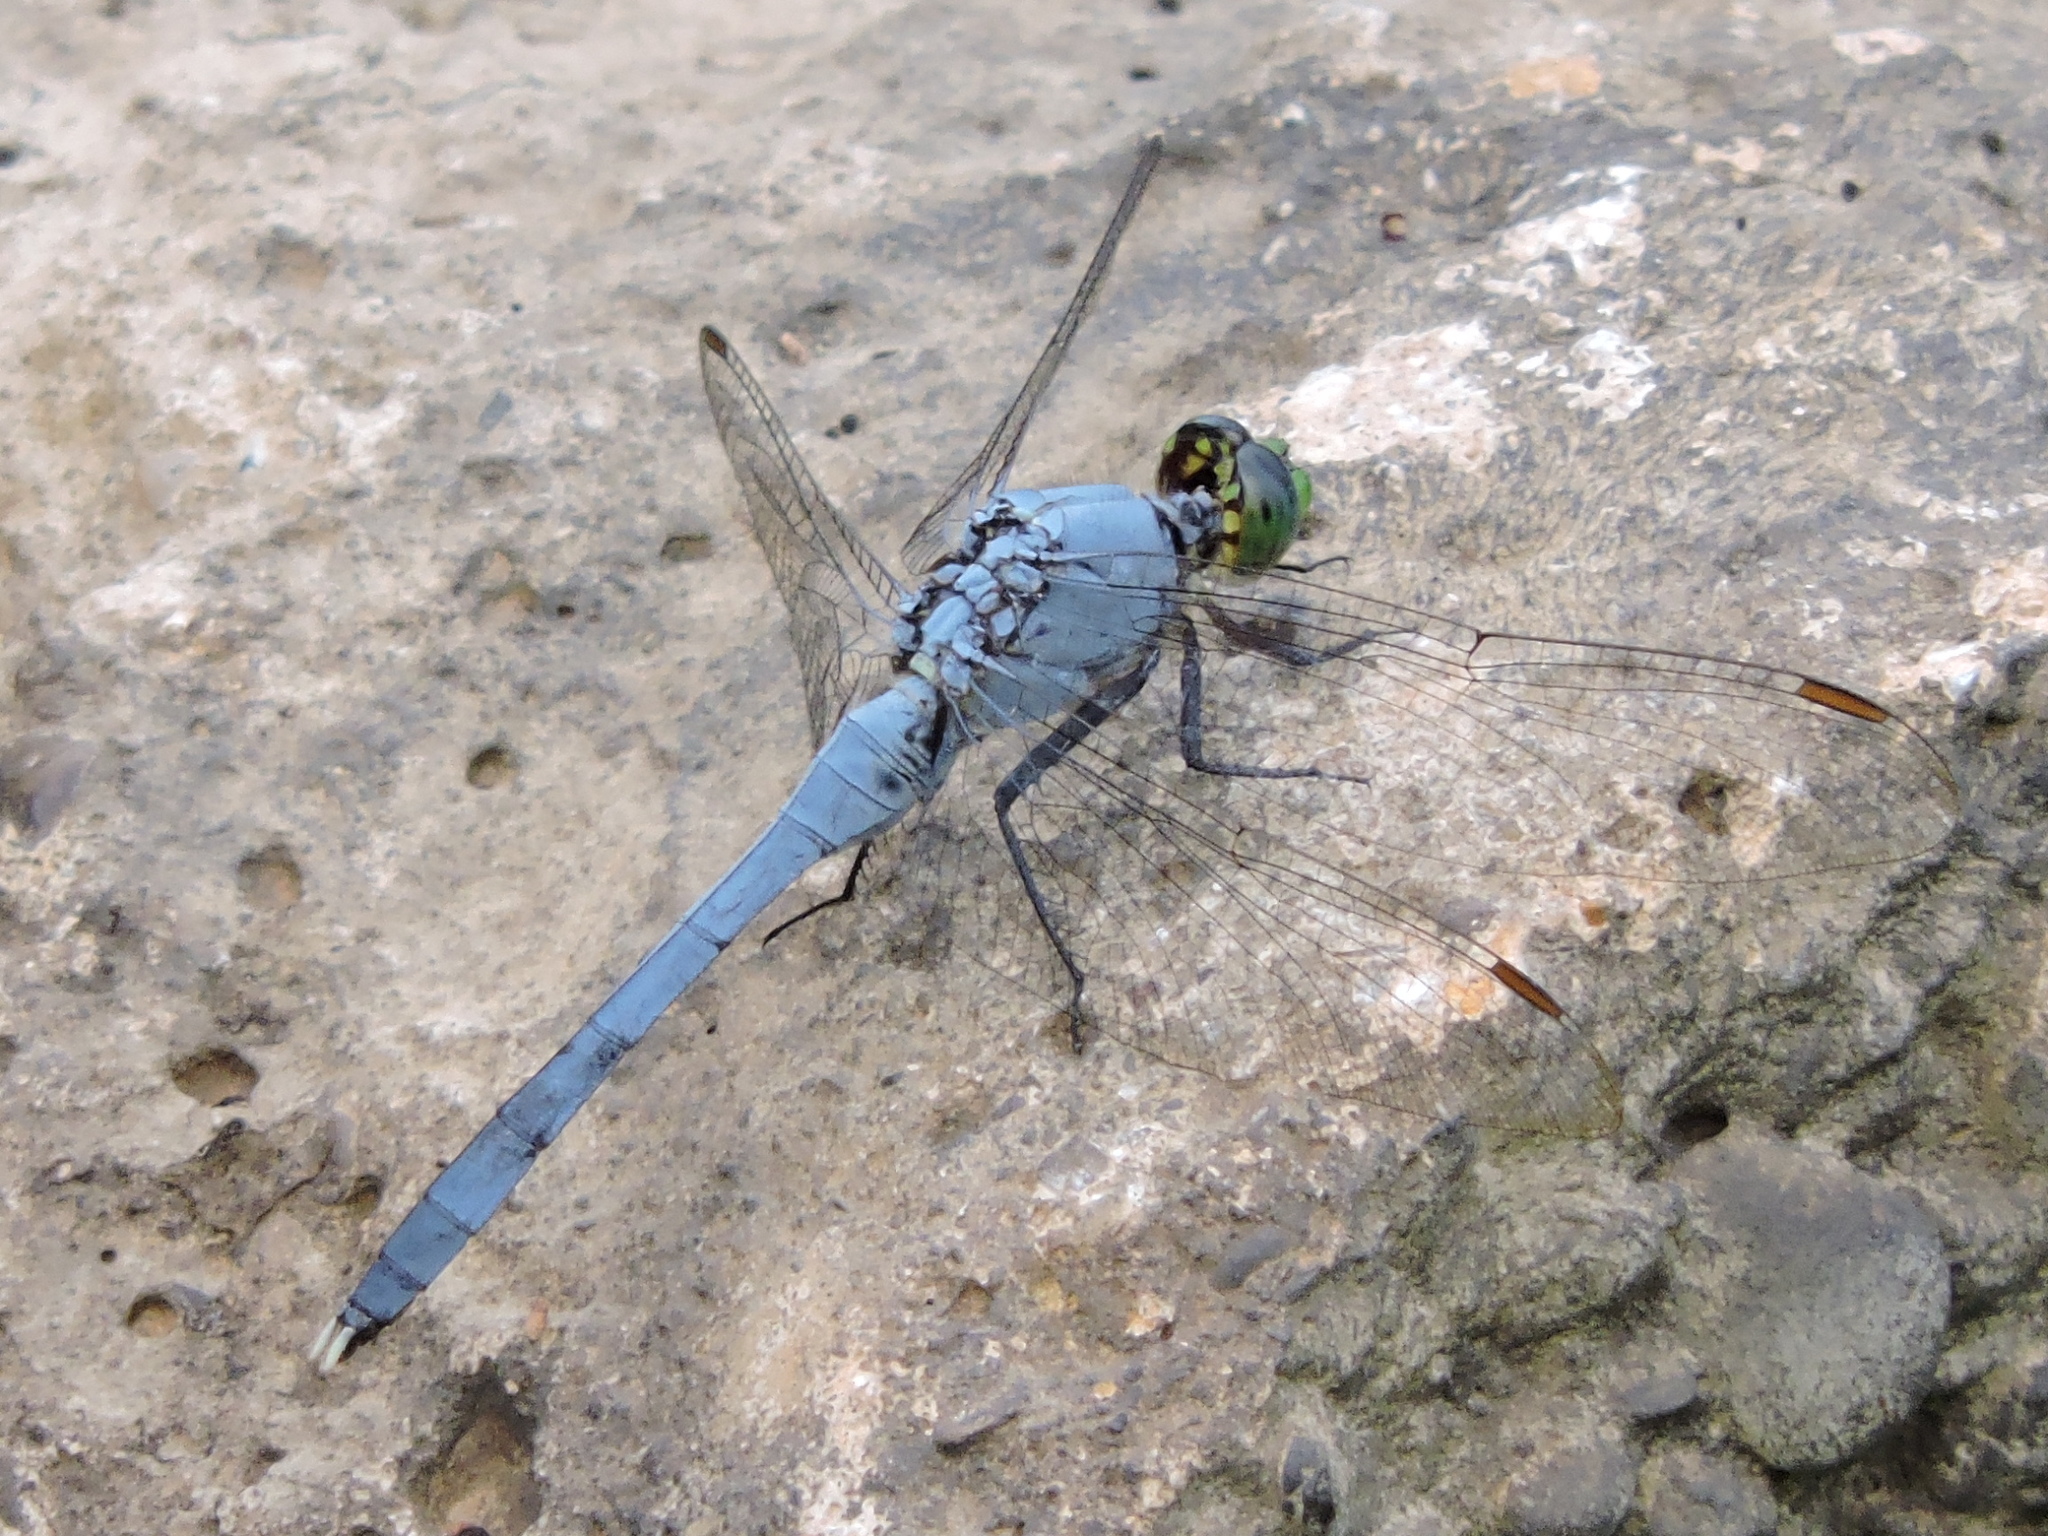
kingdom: Animalia
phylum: Arthropoda
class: Insecta
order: Odonata
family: Libellulidae
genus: Erythemis
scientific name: Erythemis simplicicollis
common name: Eastern pondhawk
